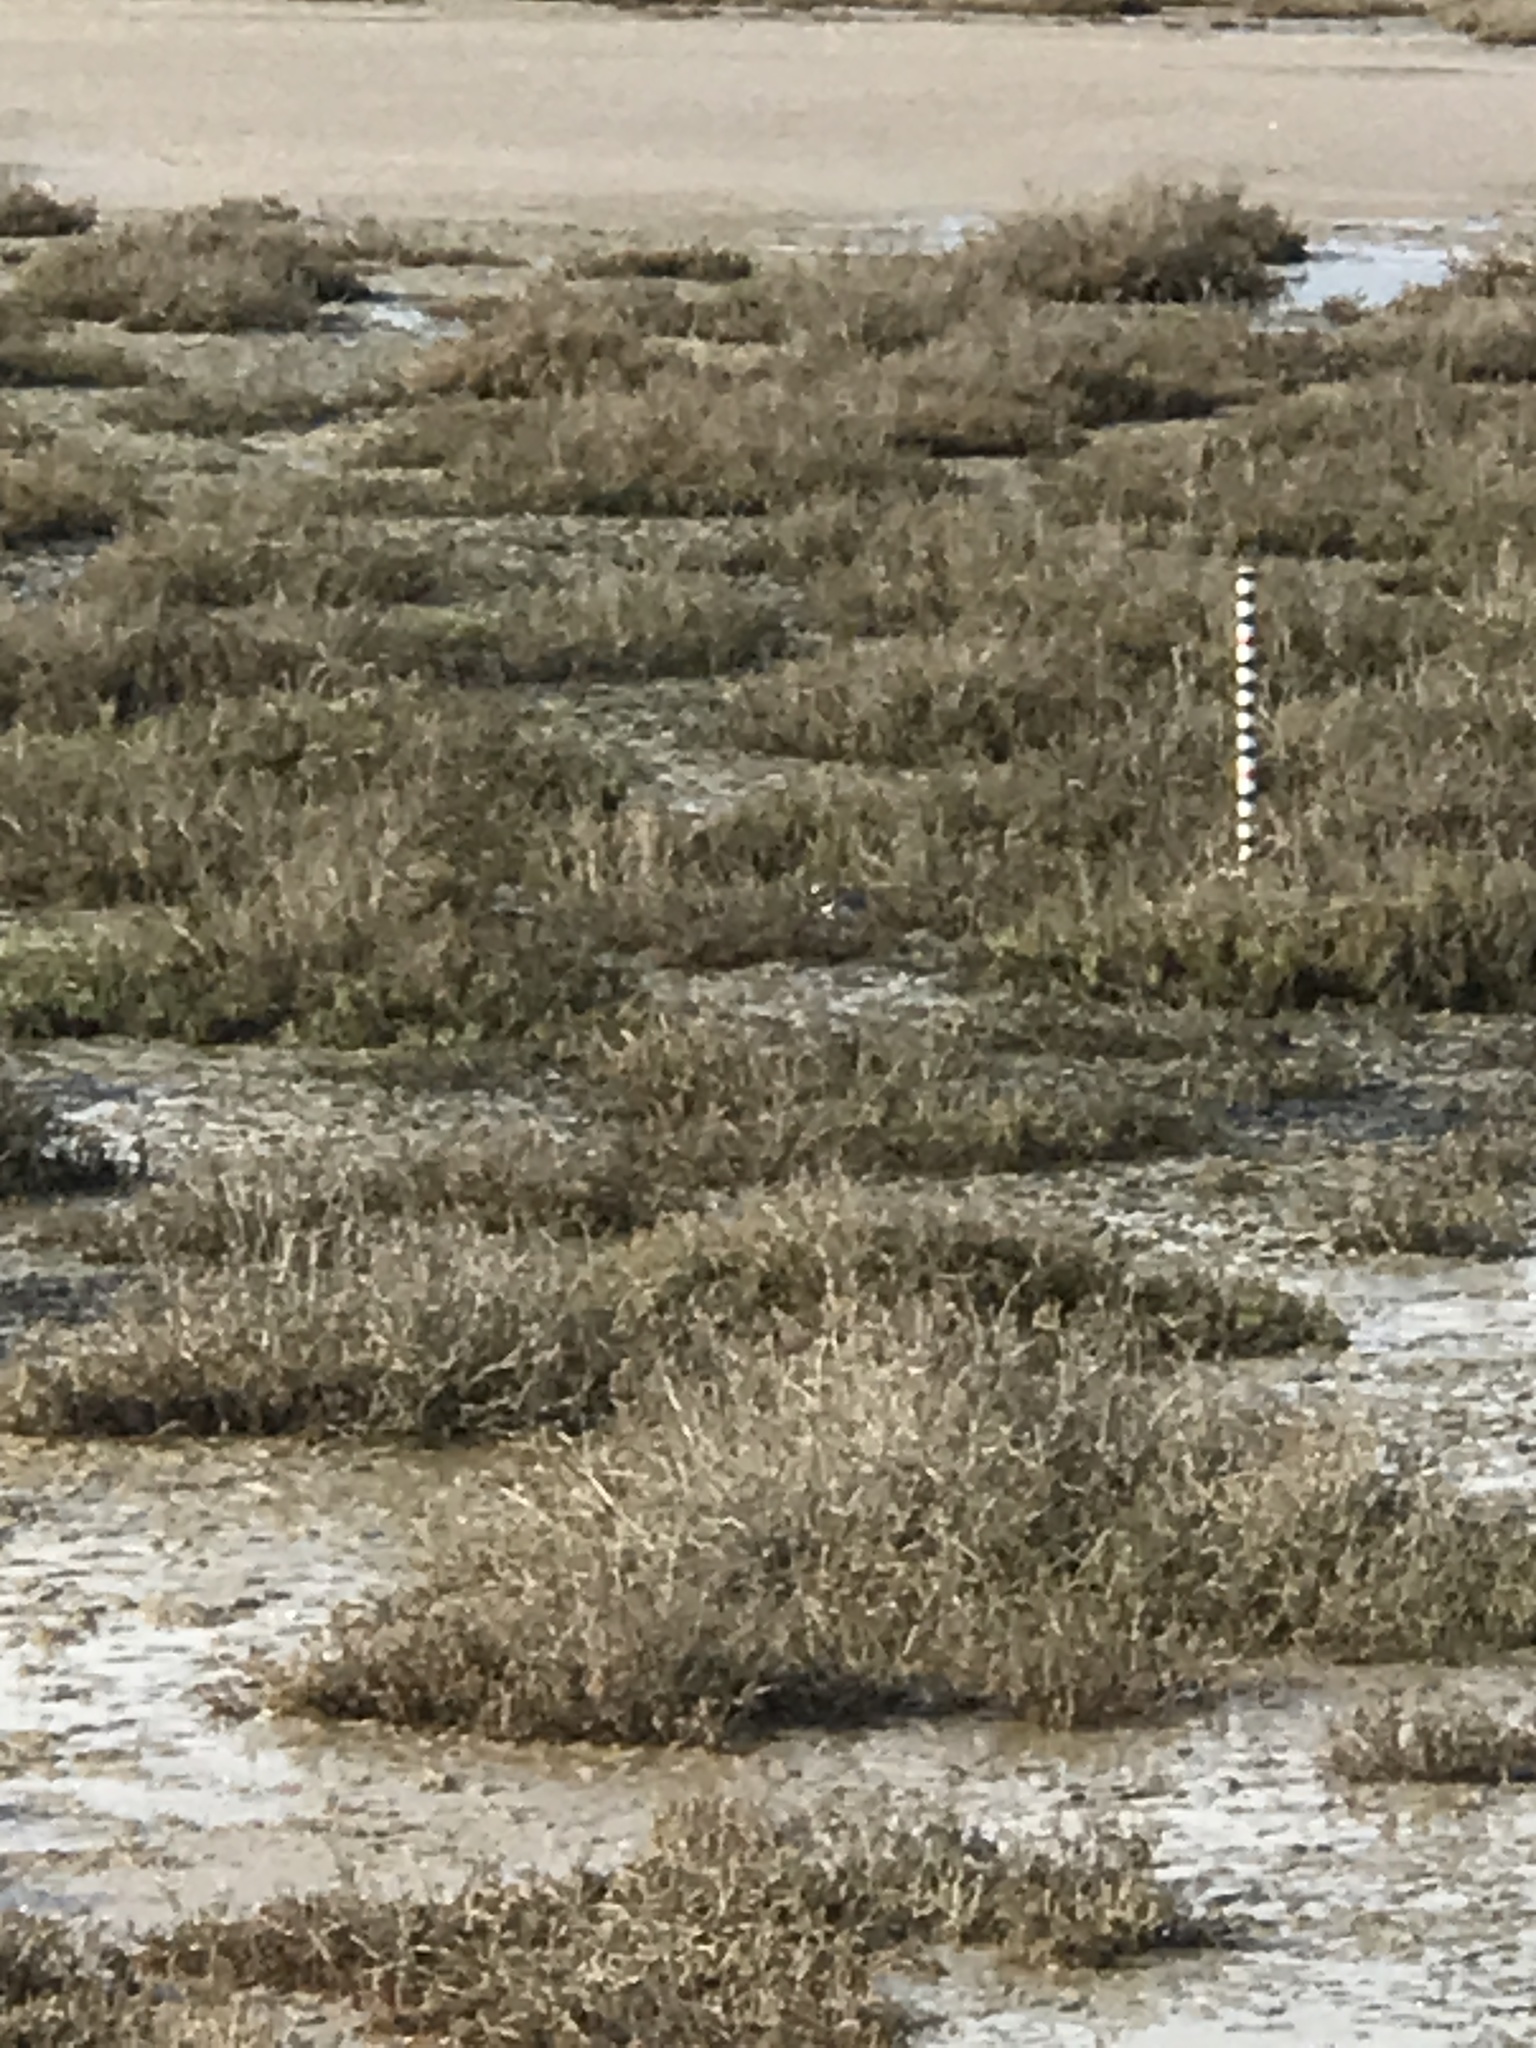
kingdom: Animalia
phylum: Chordata
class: Aves
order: Charadriiformes
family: Charadriidae
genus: Charadrius
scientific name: Charadrius vociferus
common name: Killdeer
